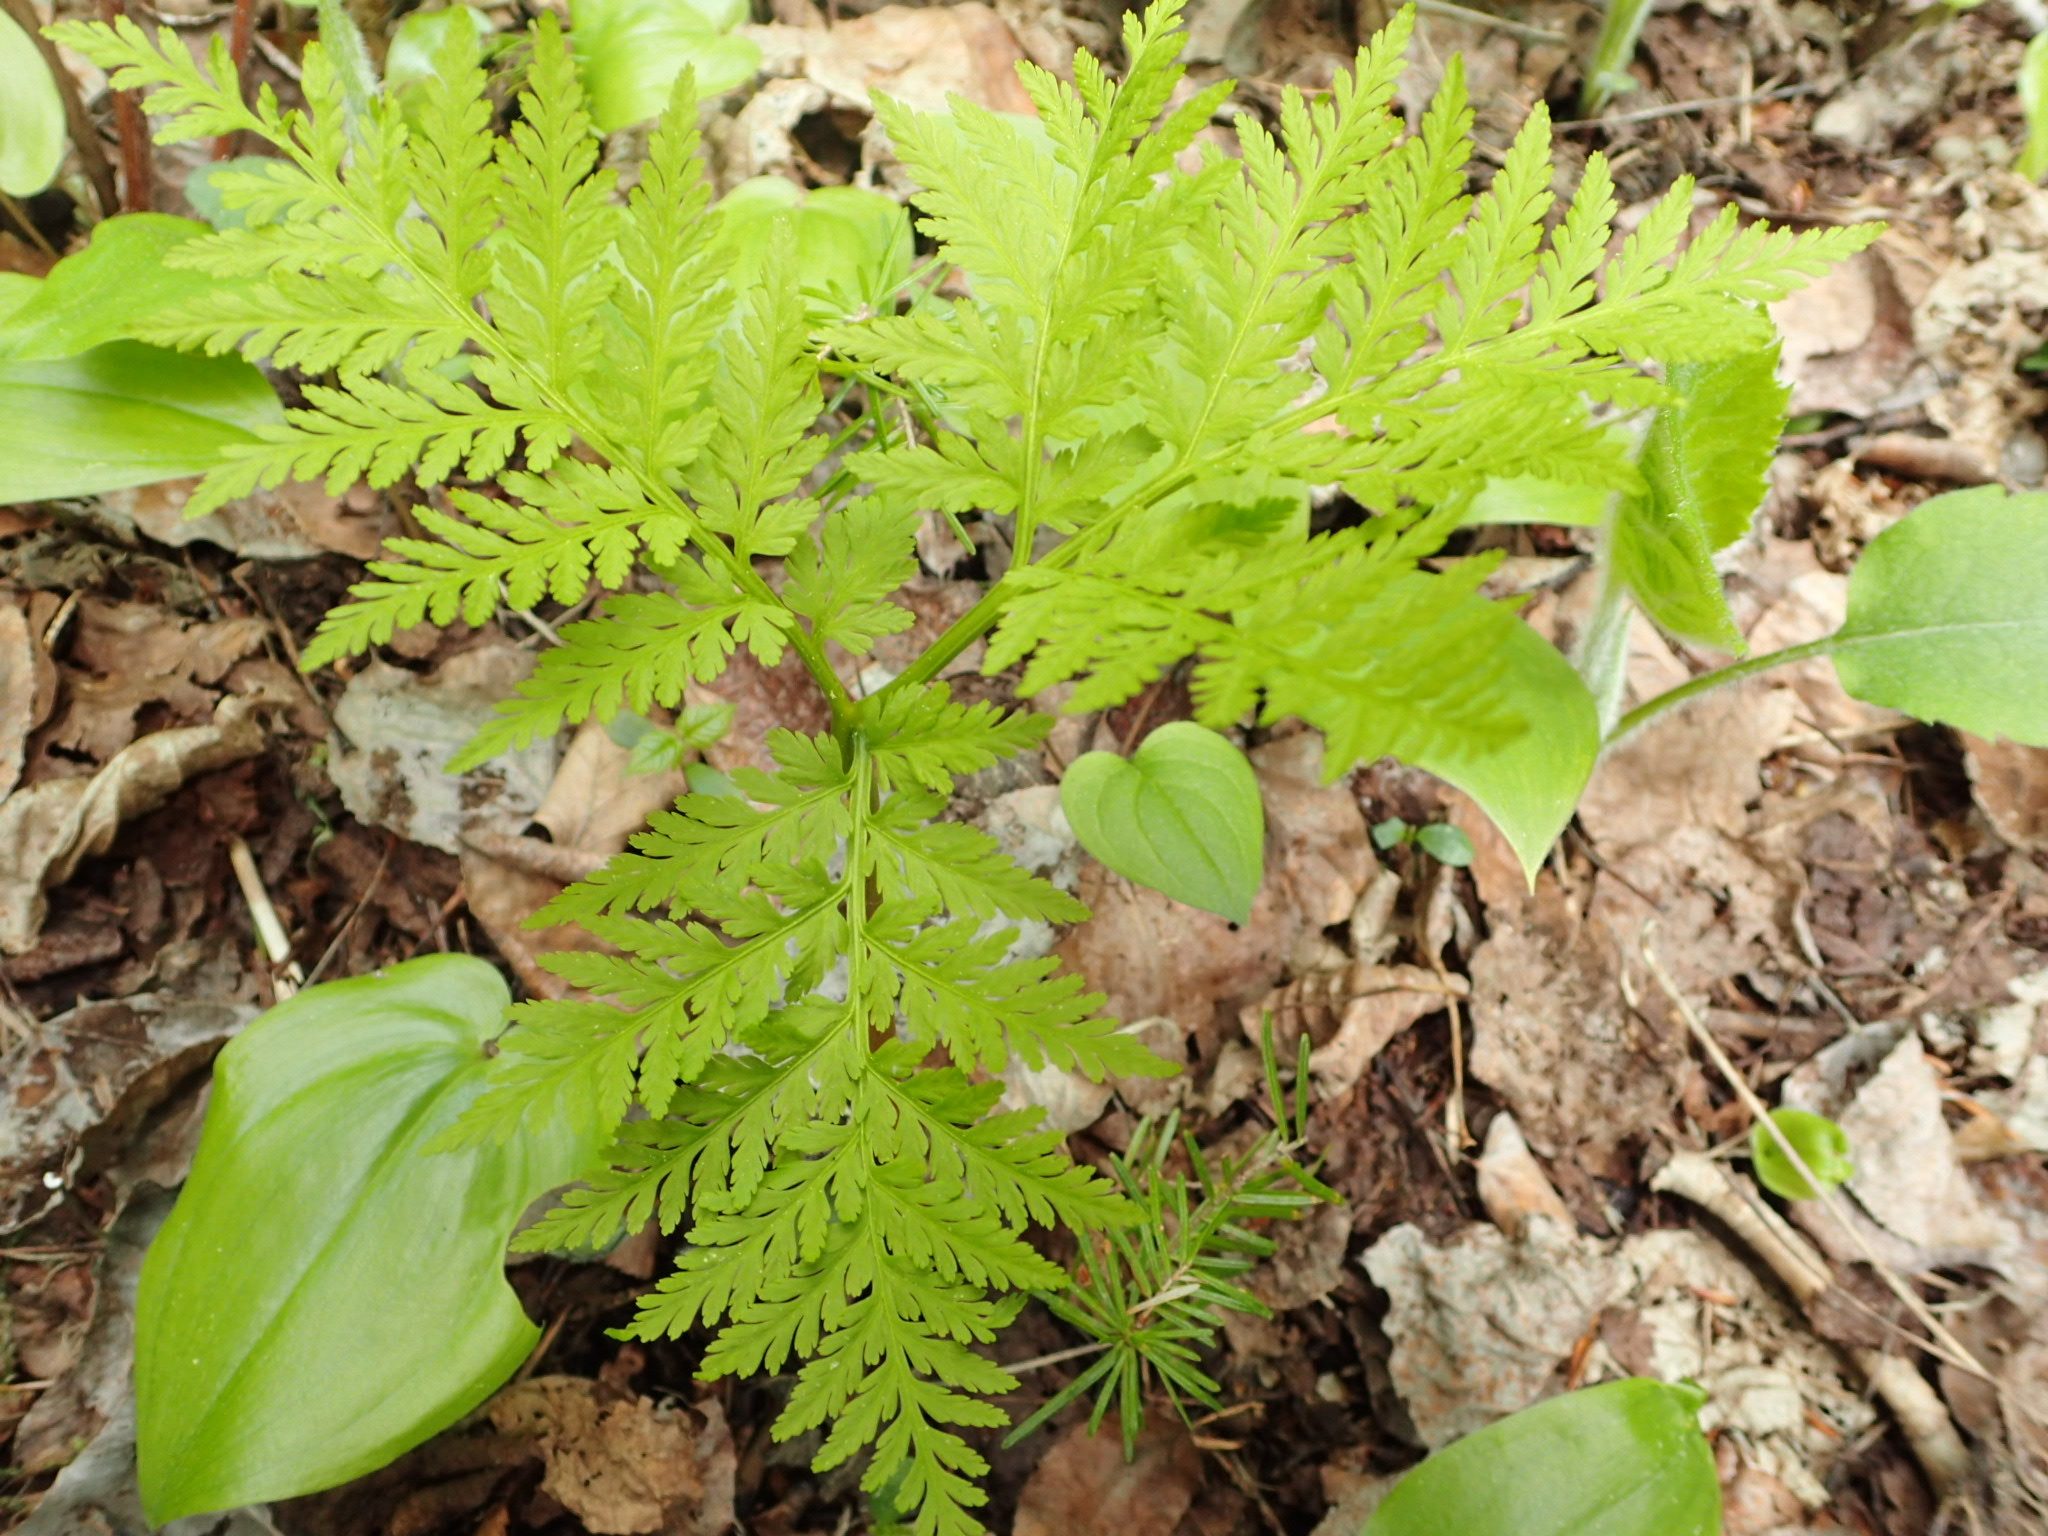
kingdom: Plantae
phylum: Tracheophyta
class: Polypodiopsida
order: Ophioglossales
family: Ophioglossaceae
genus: Botrypus
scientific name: Botrypus virginianus
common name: Common grapefern
